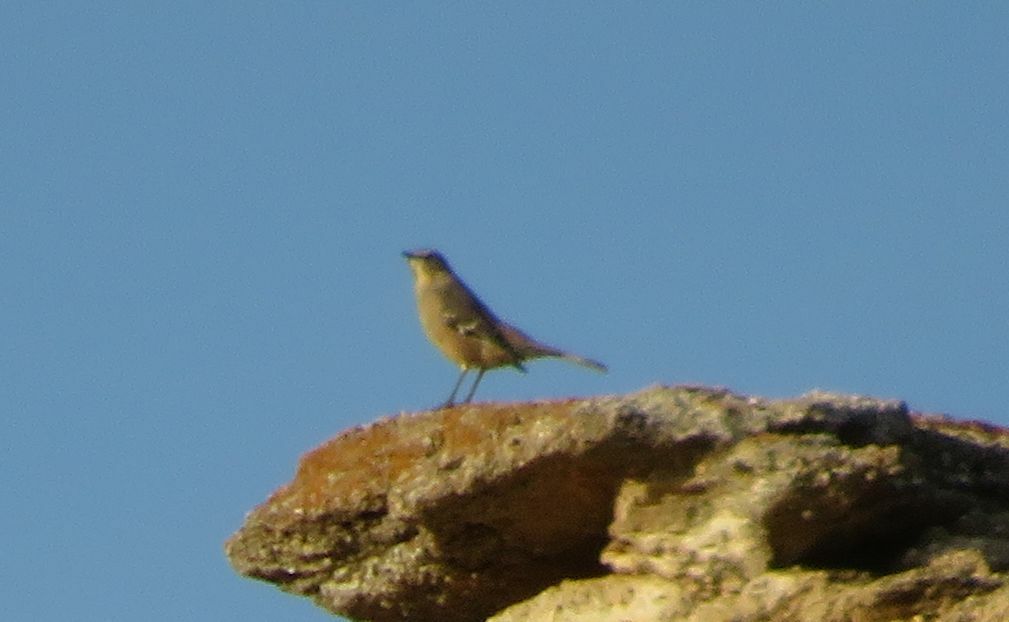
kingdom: Animalia
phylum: Chordata
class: Aves
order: Passeriformes
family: Mimidae
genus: Mimus
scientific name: Mimus patagonicus
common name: Patagonian mockingbird
